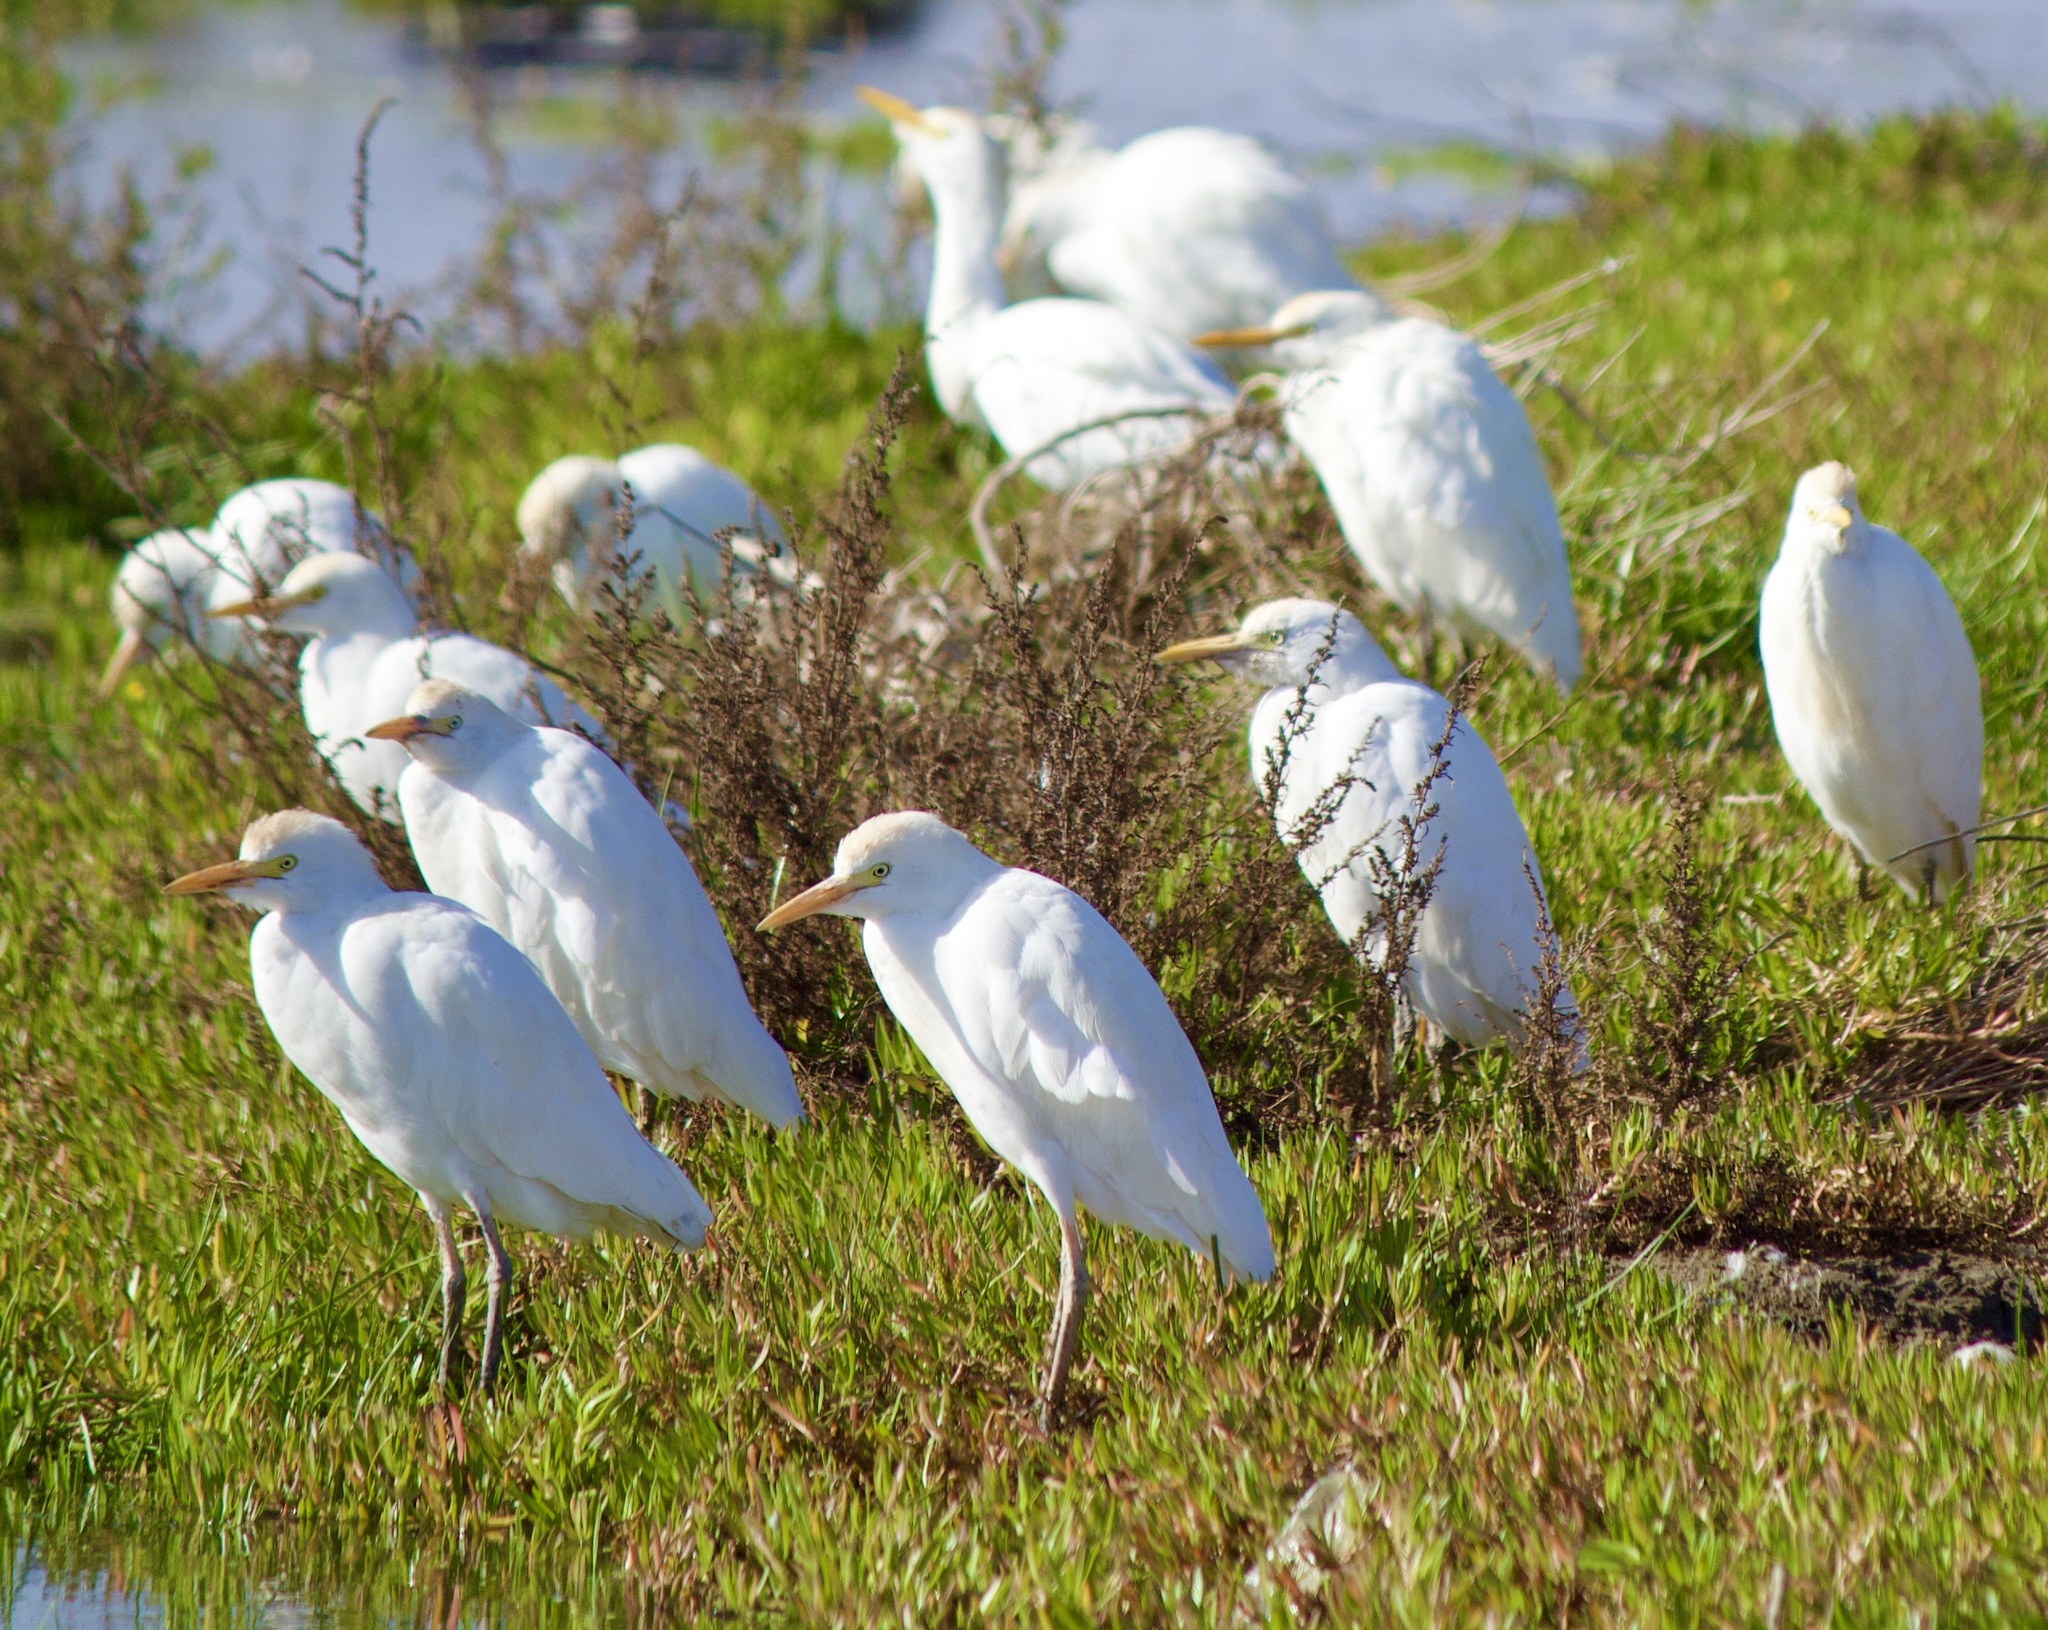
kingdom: Animalia
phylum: Chordata
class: Aves
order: Pelecaniformes
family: Ardeidae
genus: Bubulcus
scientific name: Bubulcus ibis
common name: Cattle egret
